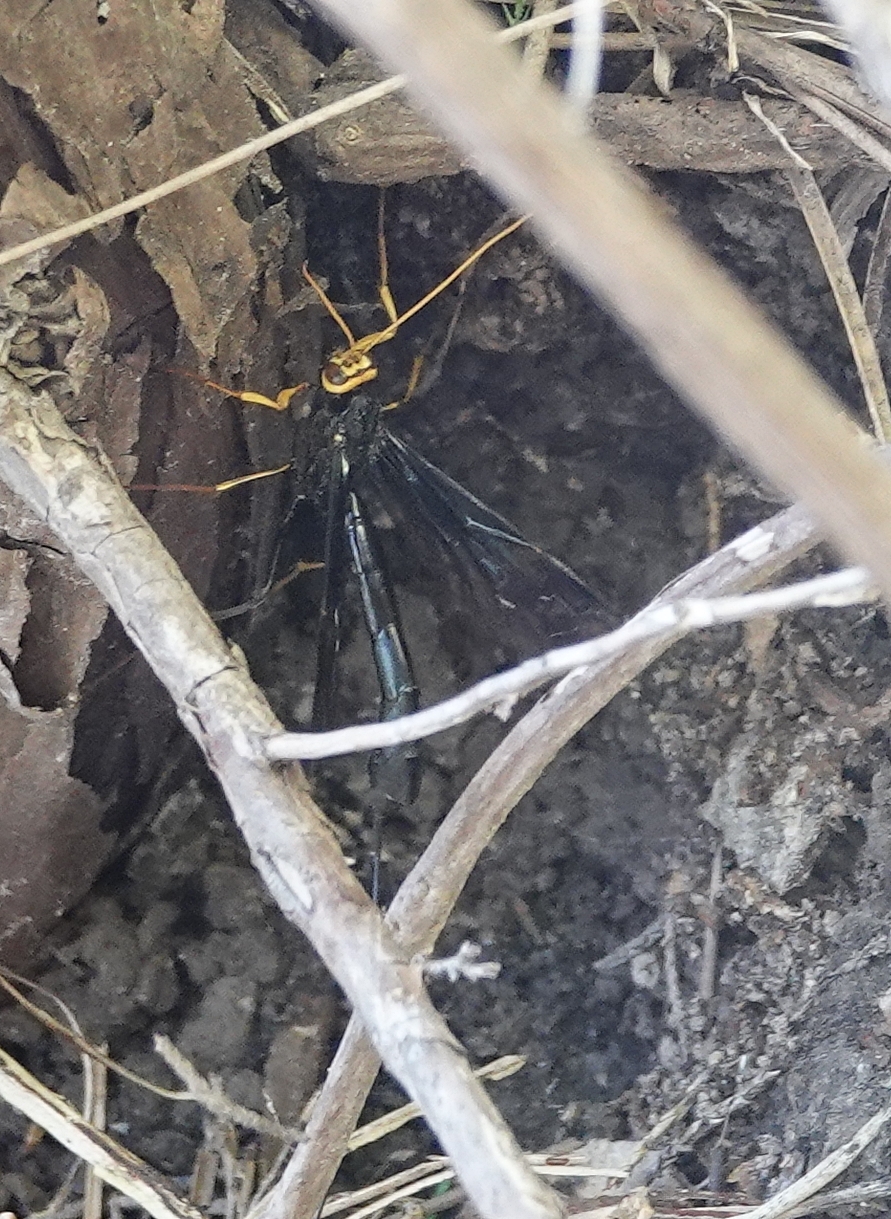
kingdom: Animalia
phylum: Arthropoda
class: Insecta
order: Hymenoptera
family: Ichneumonidae
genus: Megarhyssa
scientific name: Megarhyssa atrata
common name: Black giant ichneumonid wasp
